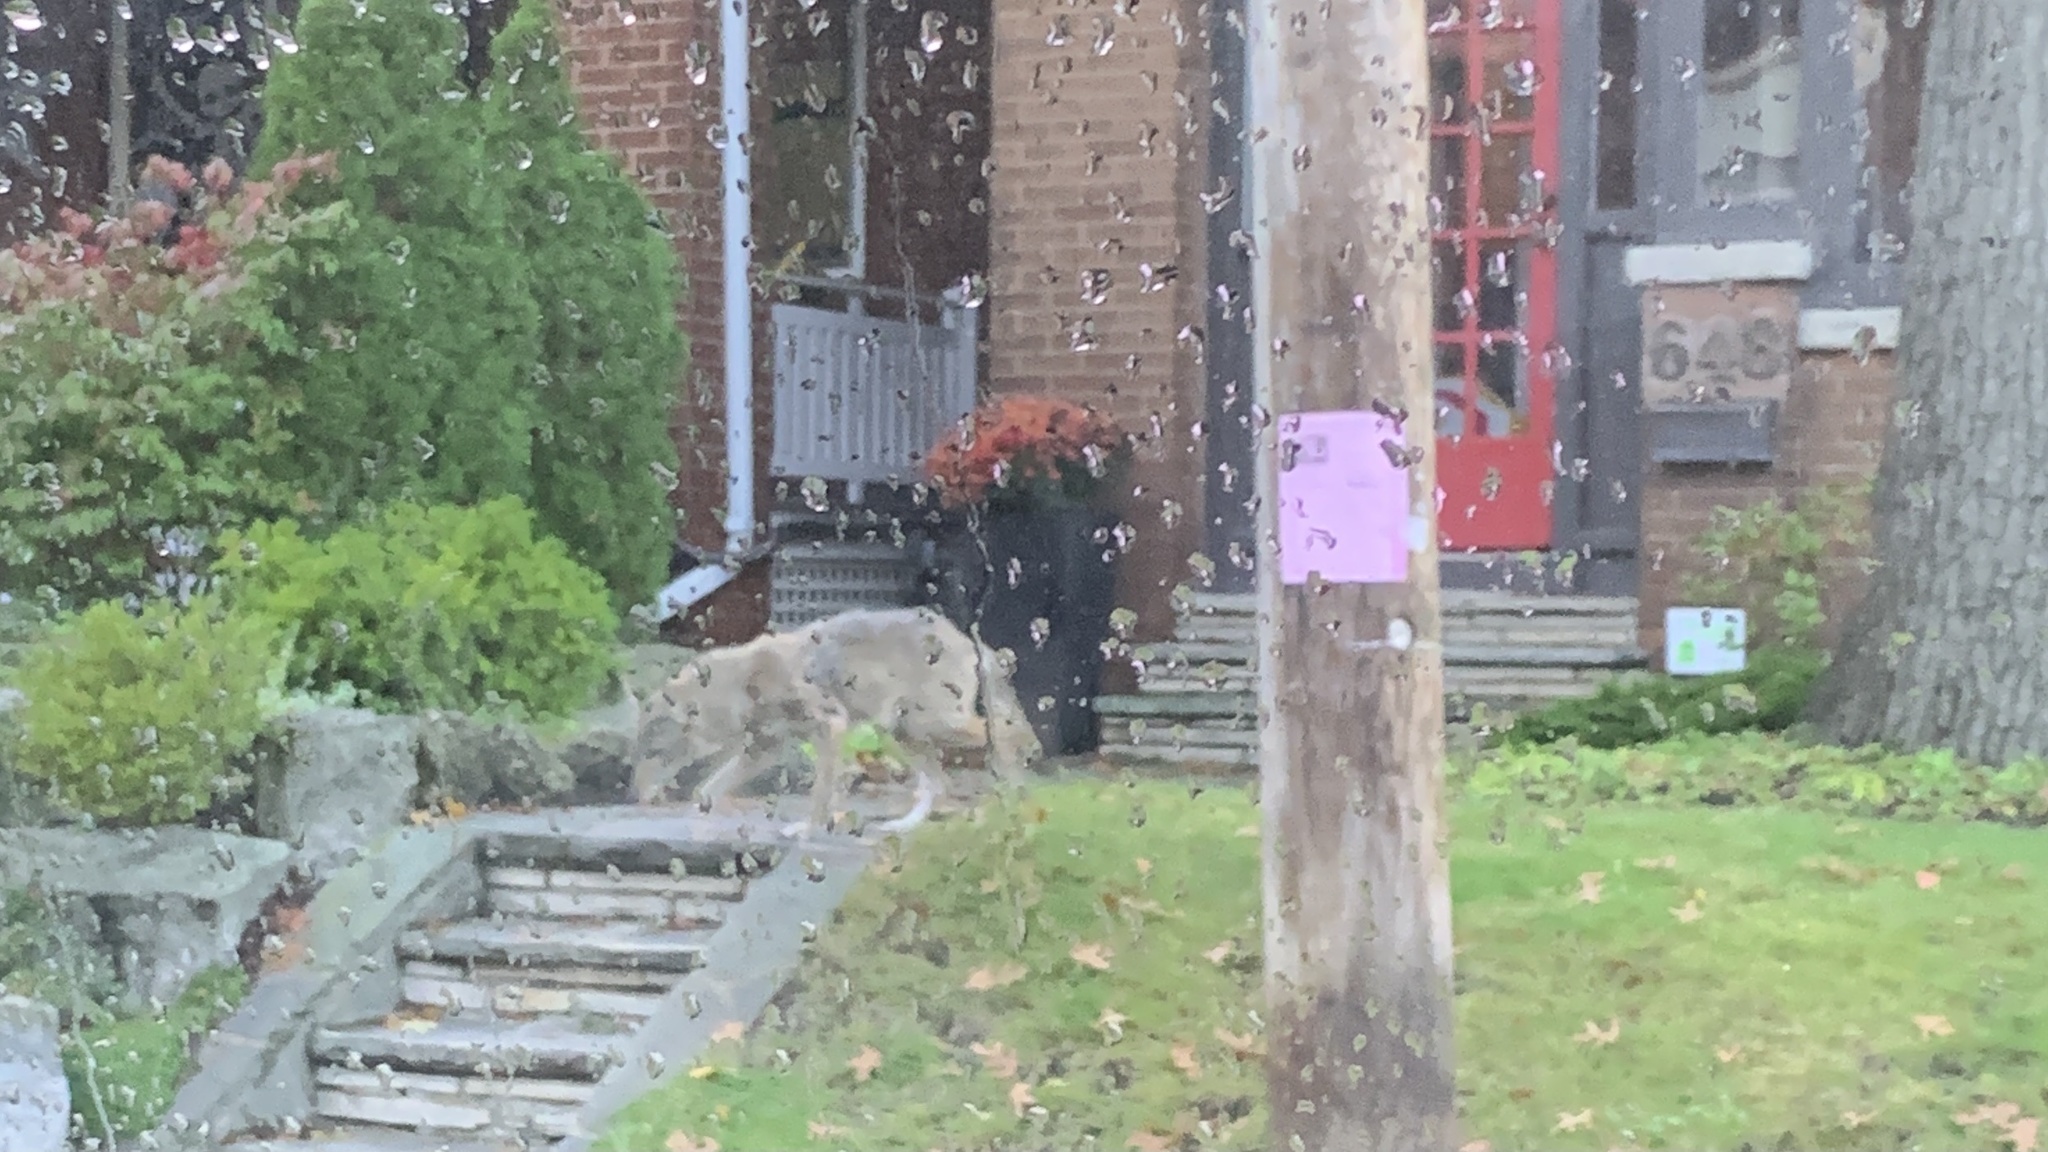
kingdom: Animalia
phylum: Chordata
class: Mammalia
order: Carnivora
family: Canidae
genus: Canis
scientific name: Canis latrans
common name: Coyote
